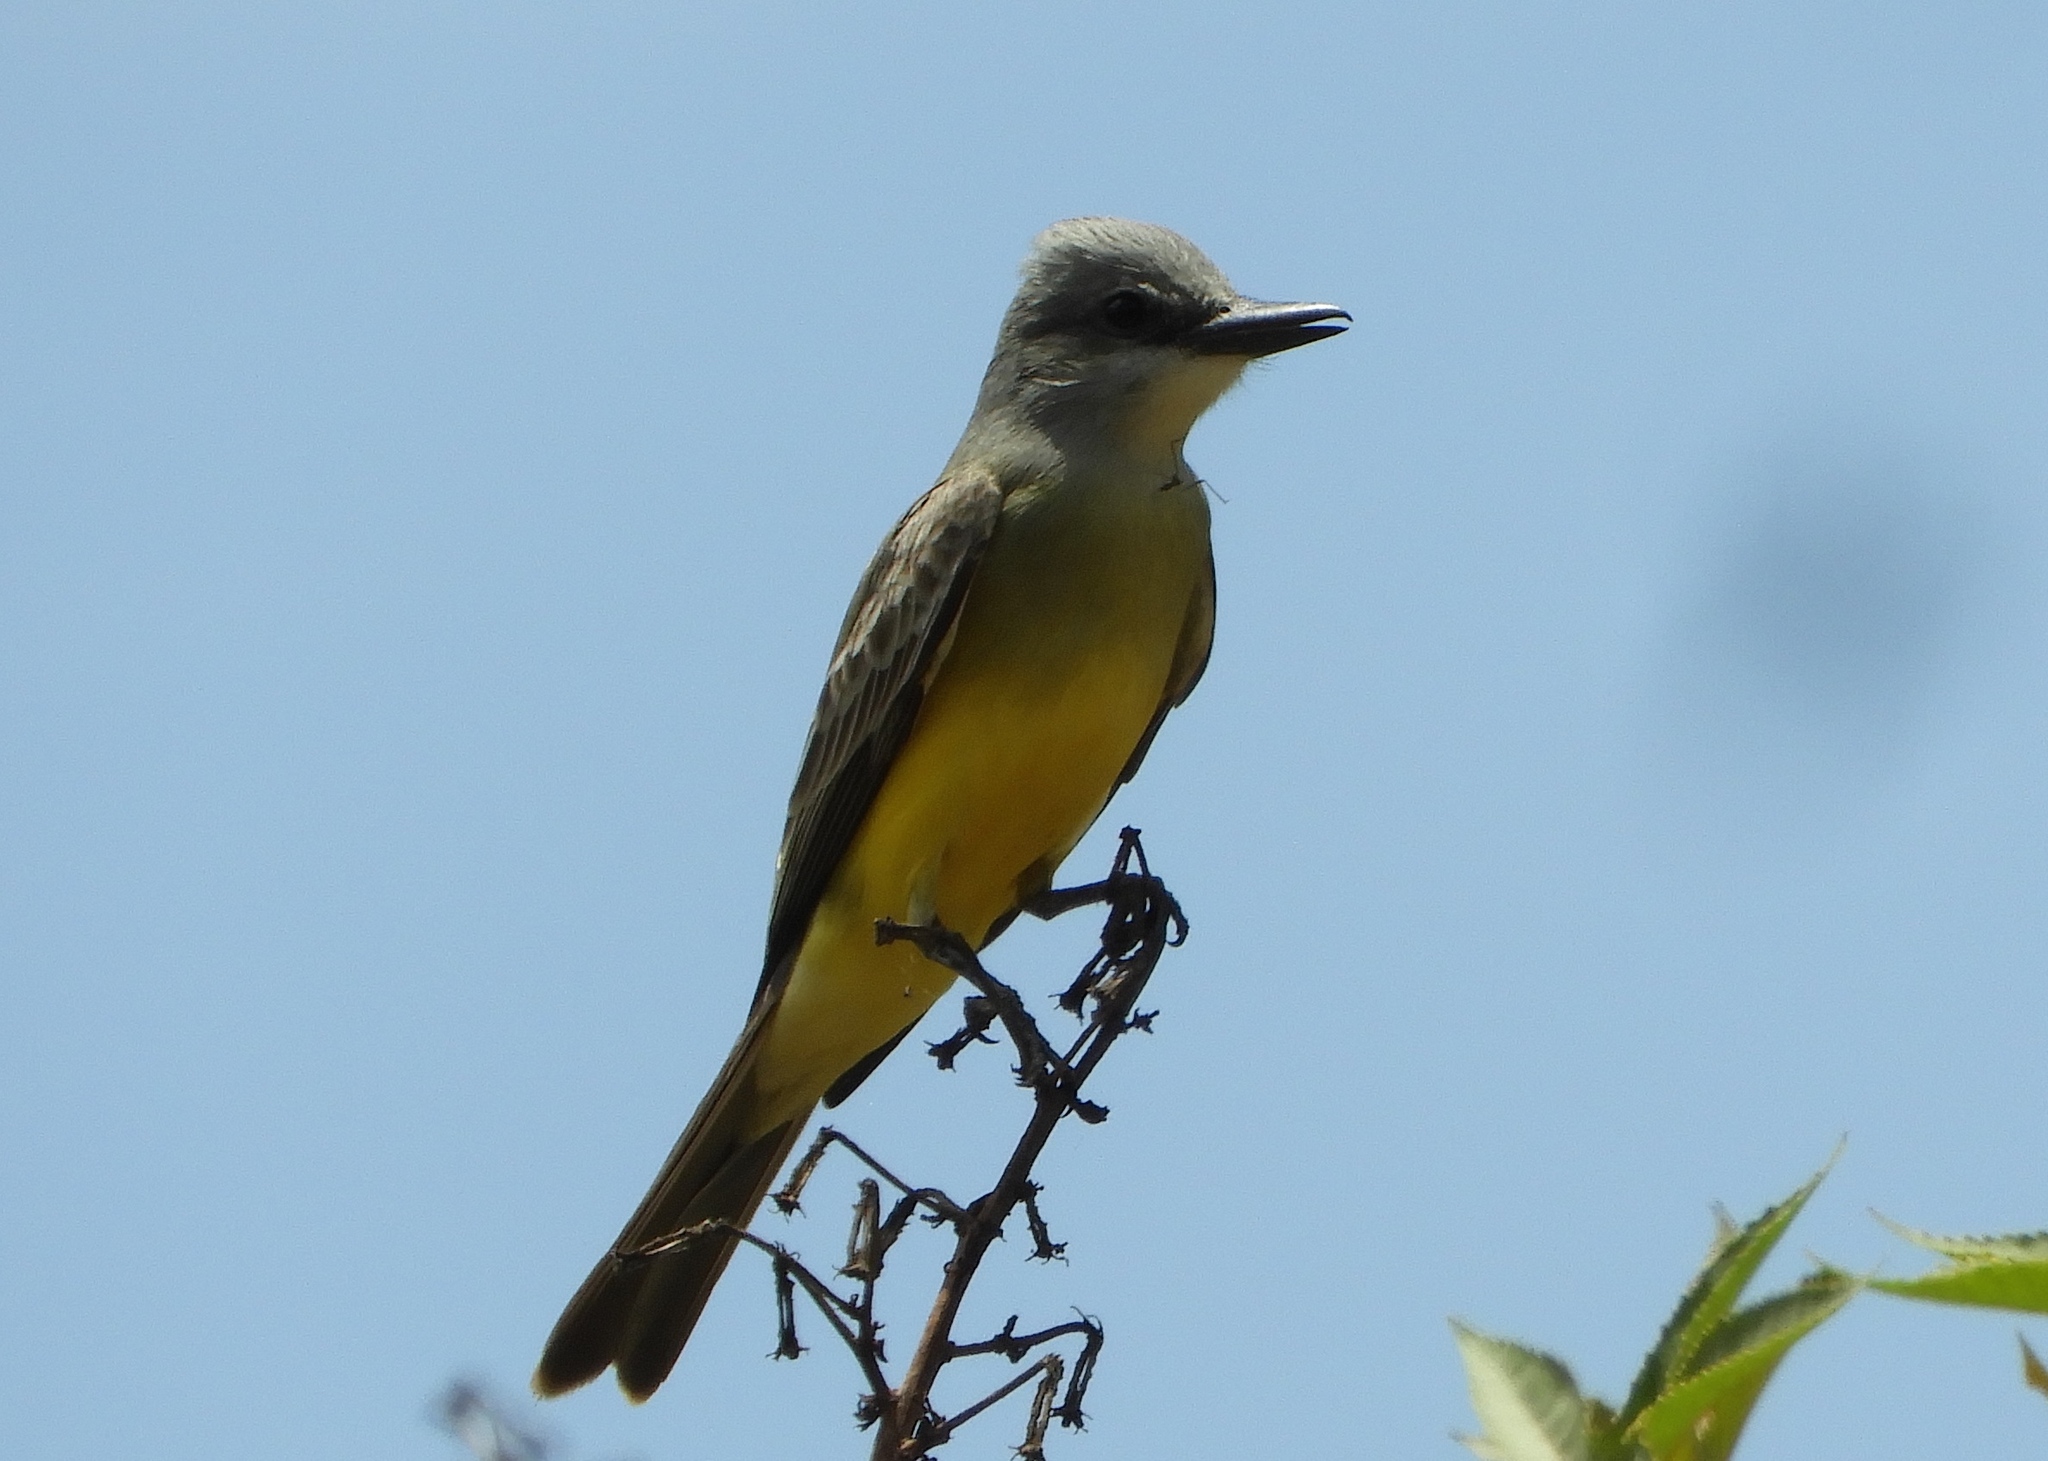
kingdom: Animalia
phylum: Chordata
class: Aves
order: Passeriformes
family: Tyrannidae
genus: Tyrannus
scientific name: Tyrannus melancholicus
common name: Tropical kingbird
